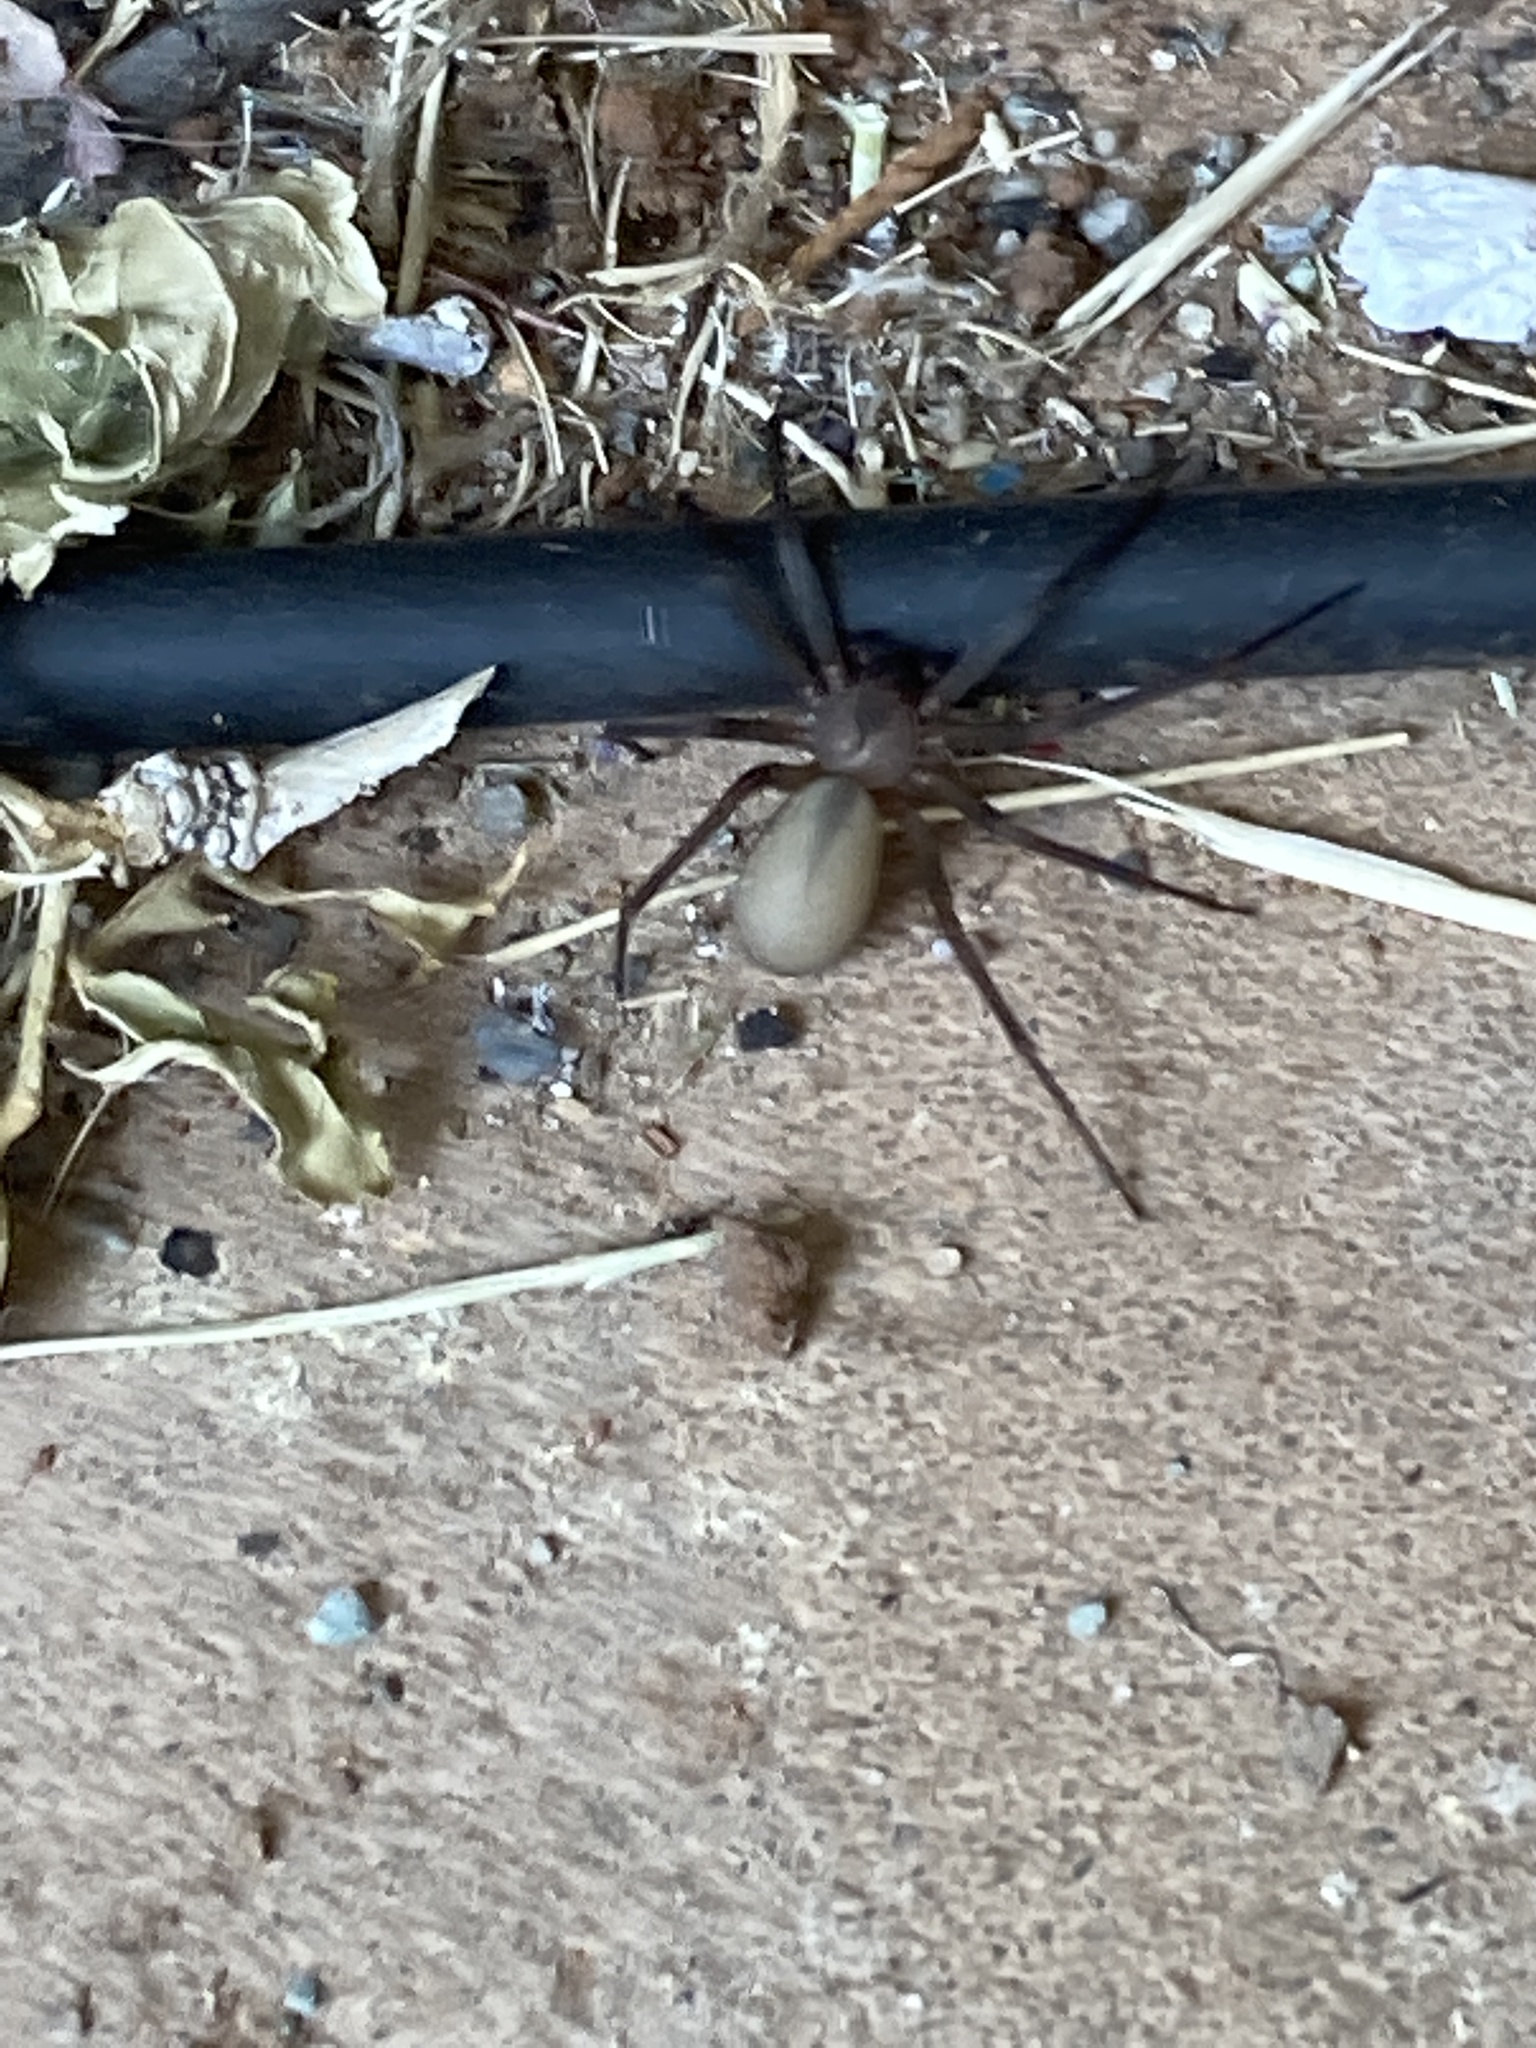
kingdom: Animalia
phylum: Arthropoda
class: Arachnida
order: Araneae
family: Sicariidae
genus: Loxosceles
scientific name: Loxosceles reclusa
